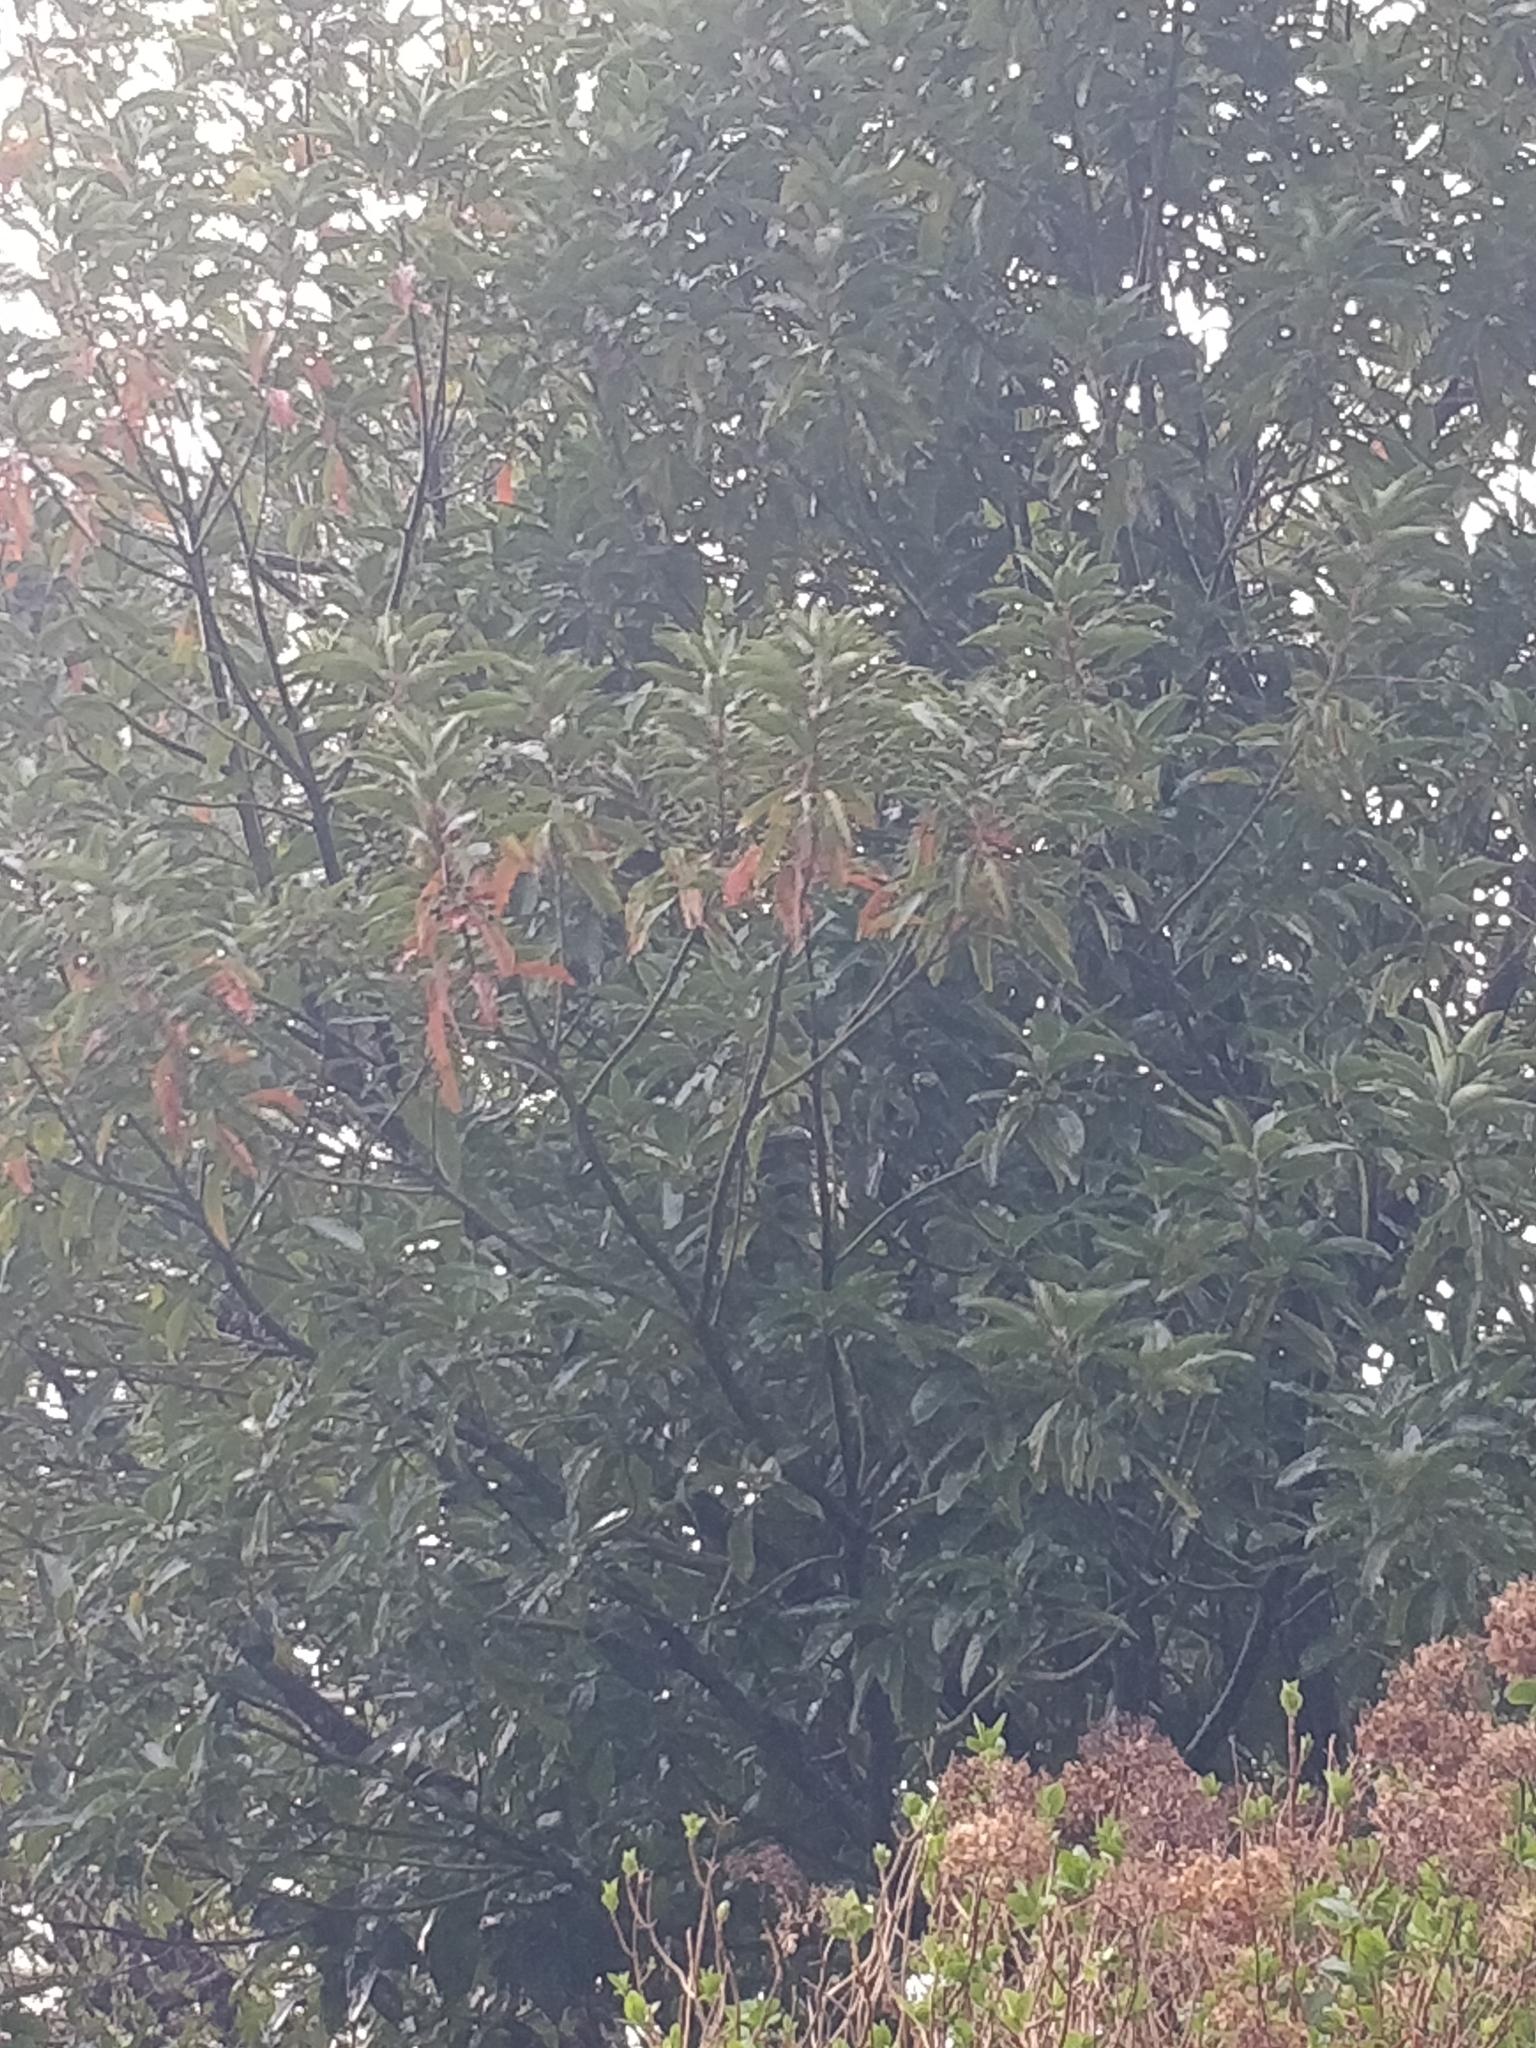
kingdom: Plantae
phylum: Tracheophyta
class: Magnoliopsida
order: Laurales
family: Lauraceae
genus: Persea
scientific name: Persea indica
